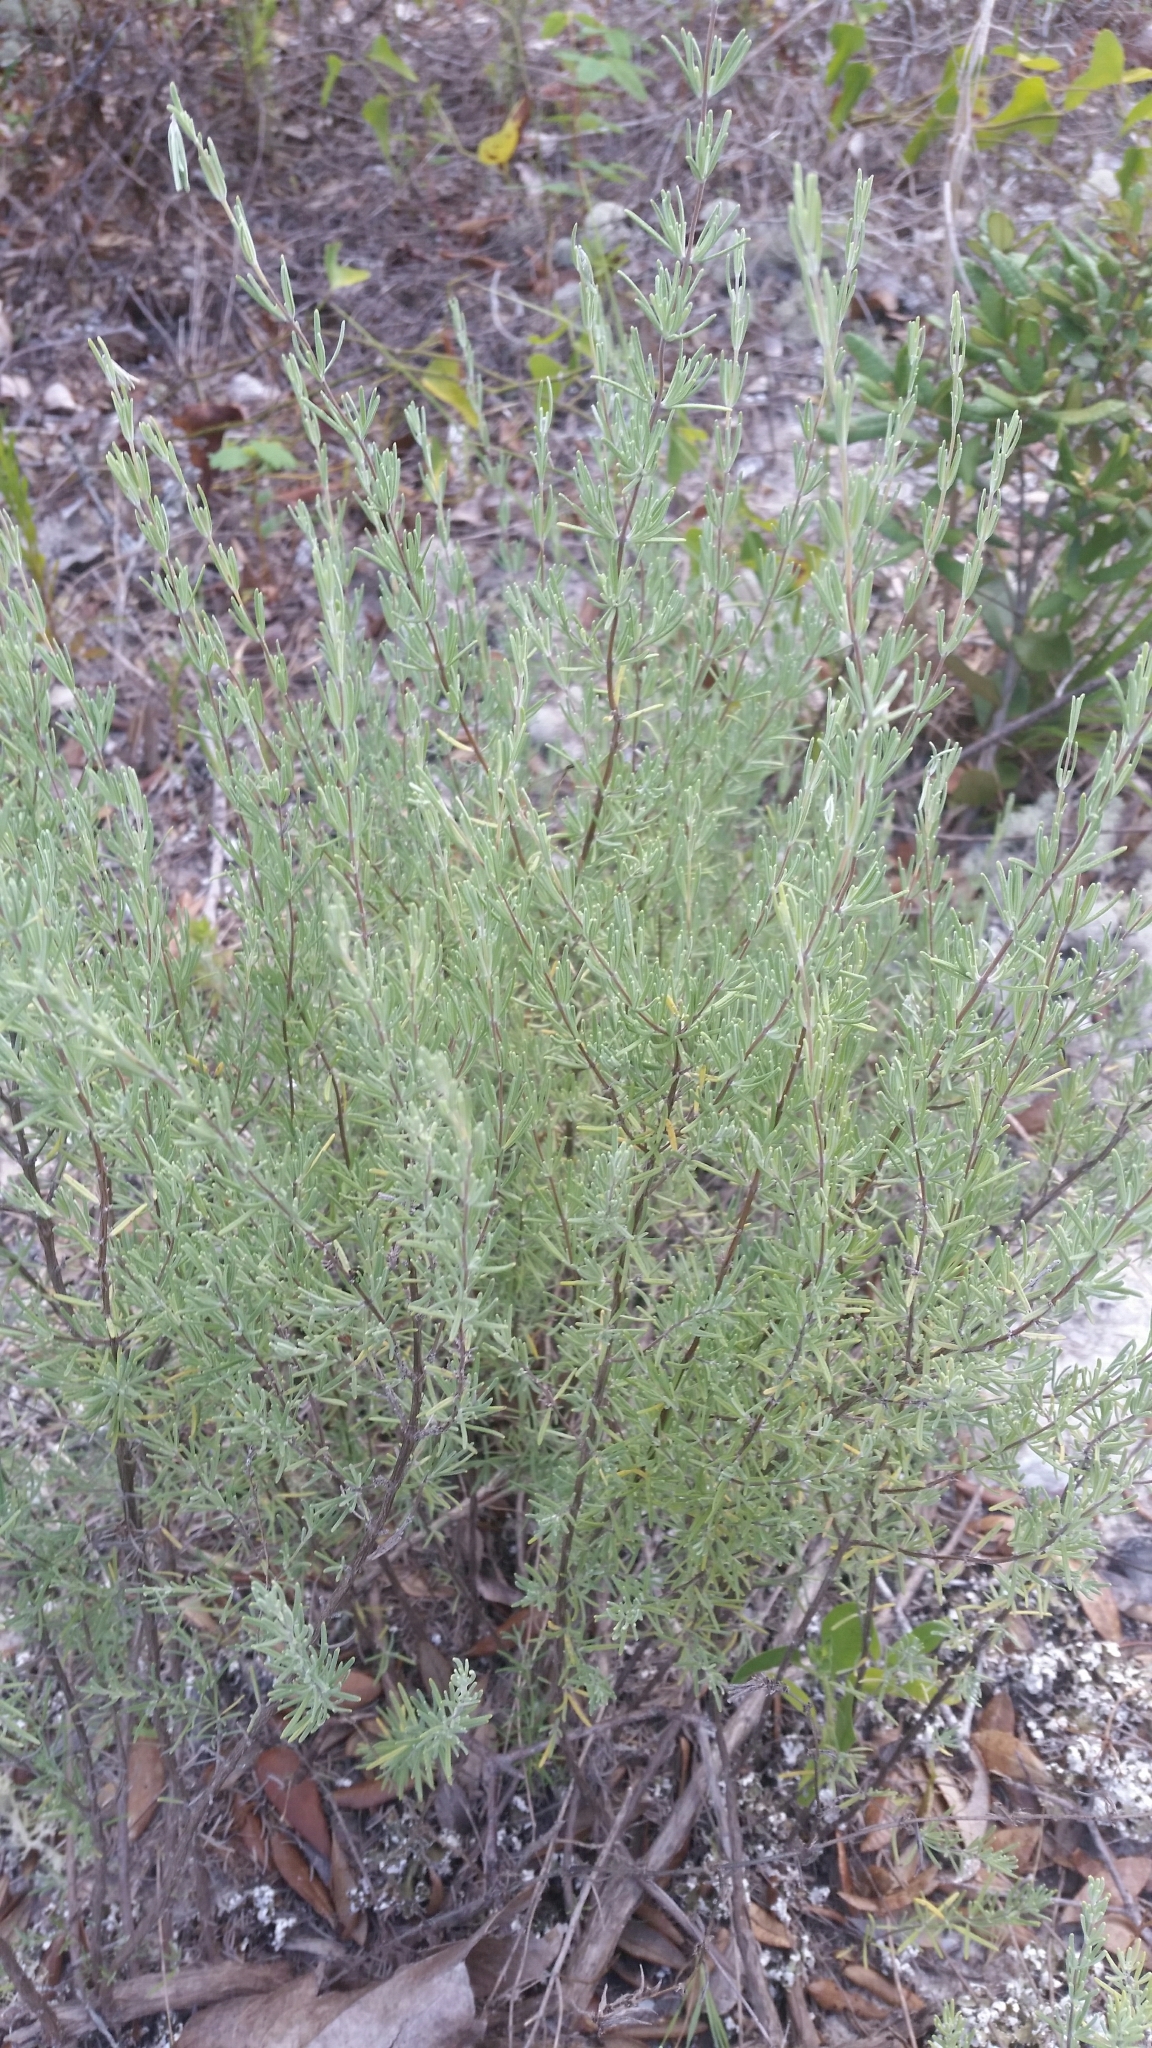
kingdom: Plantae
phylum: Tracheophyta
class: Magnoliopsida
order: Lamiales
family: Lamiaceae
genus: Conradina
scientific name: Conradina canescens
